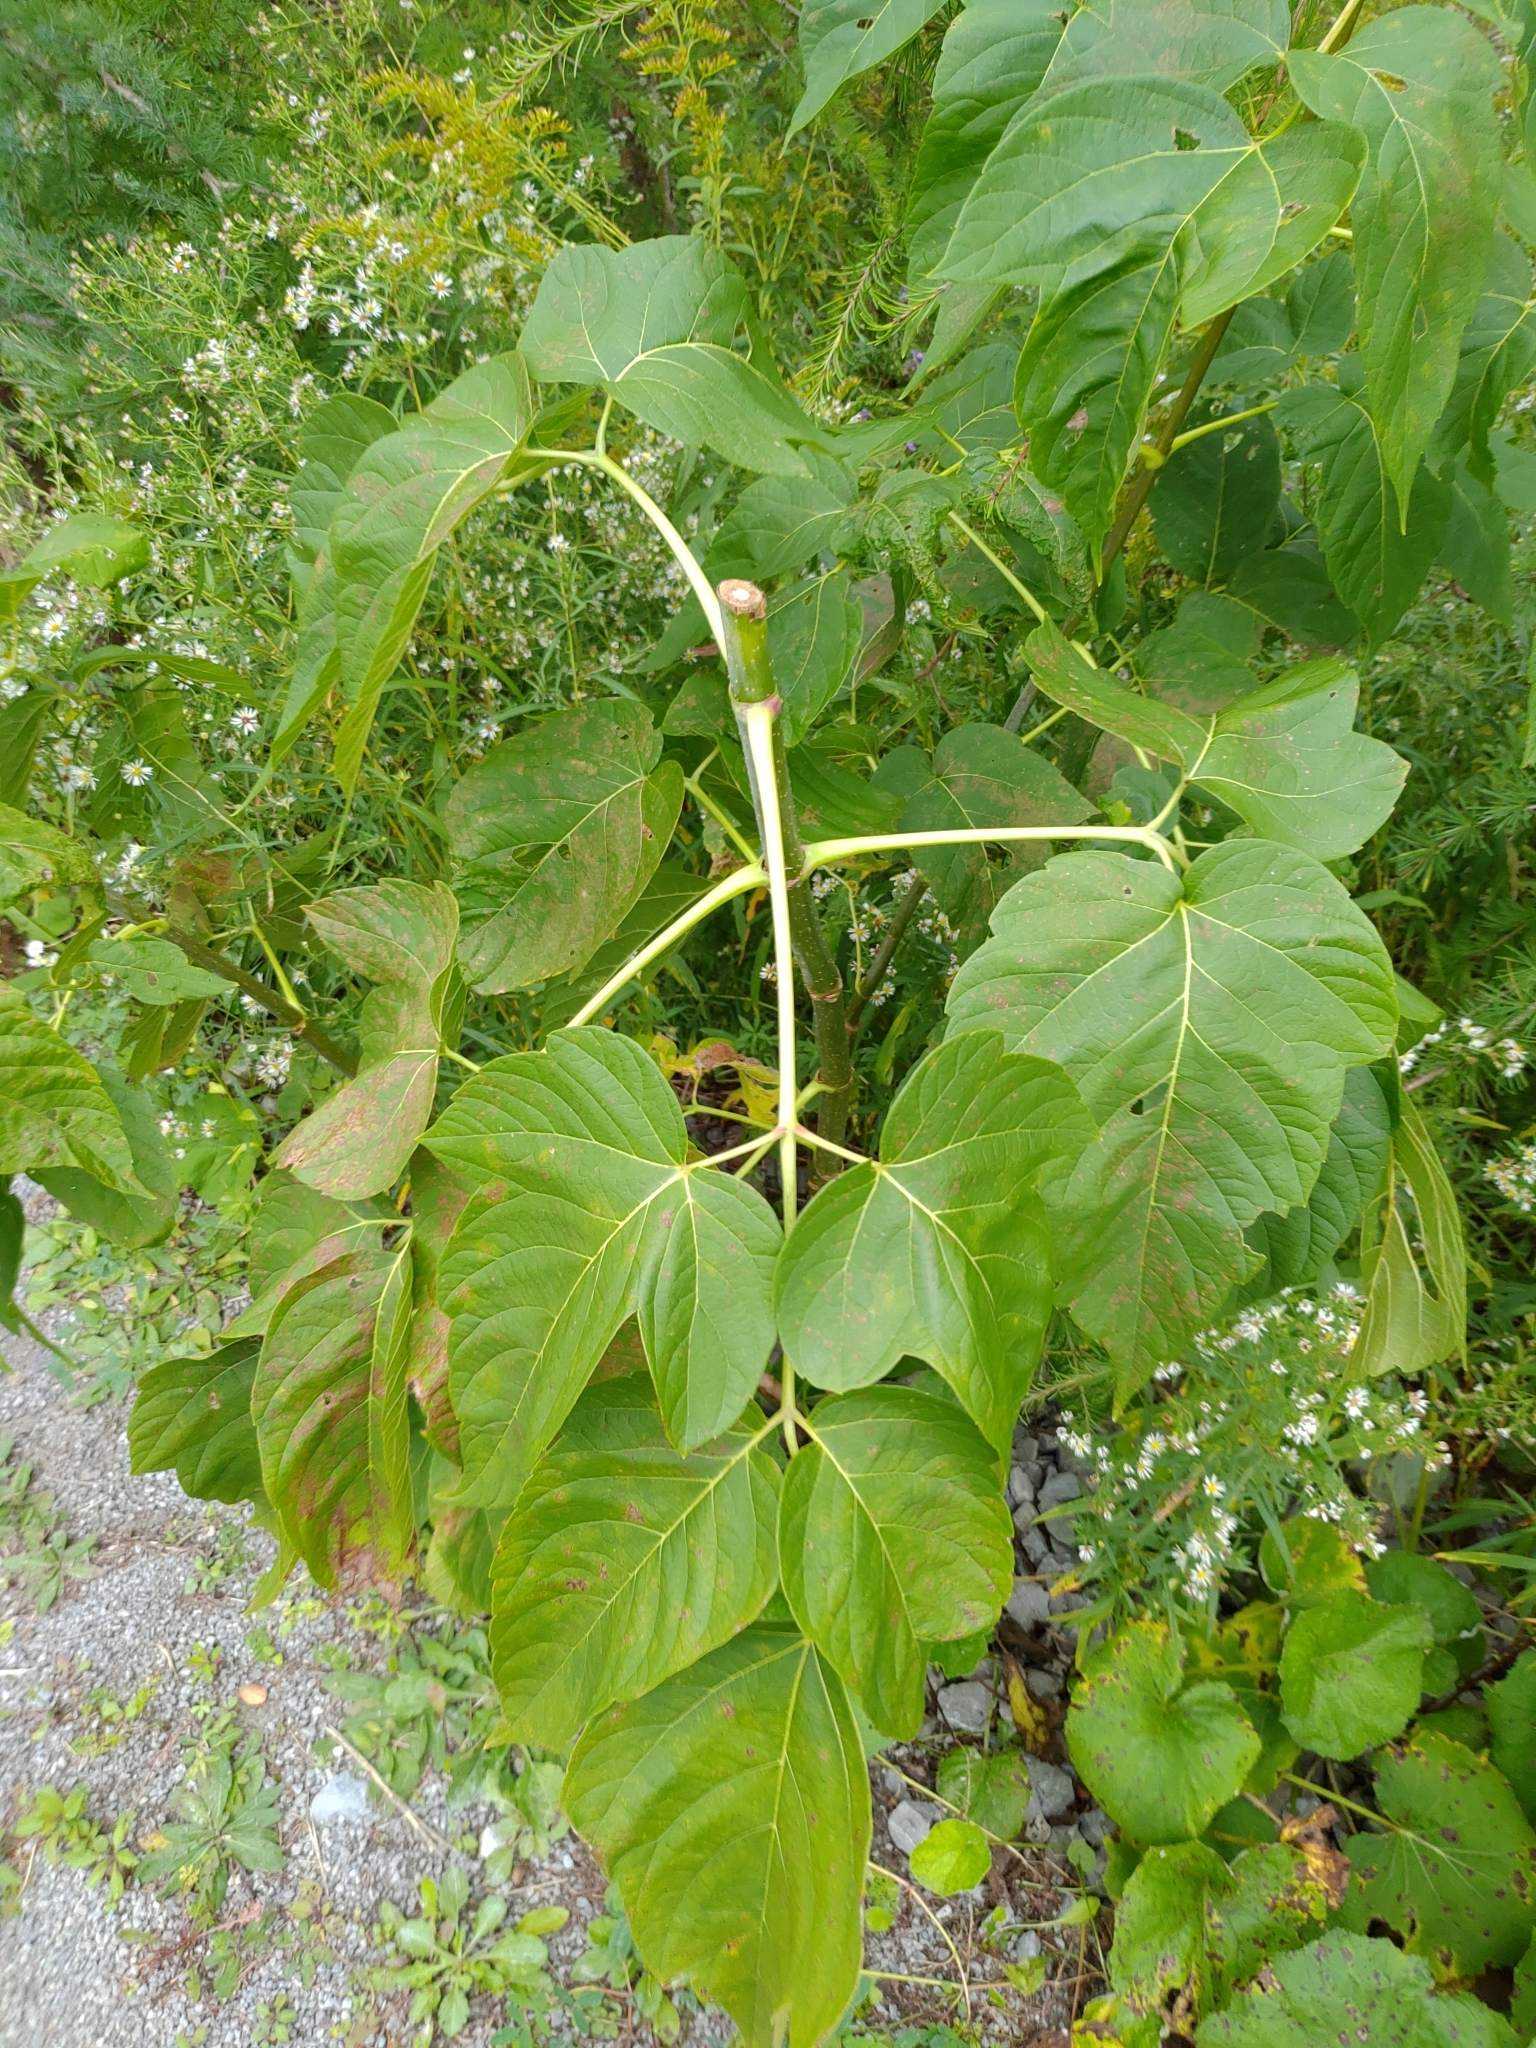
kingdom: Plantae
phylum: Tracheophyta
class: Magnoliopsida
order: Sapindales
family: Sapindaceae
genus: Acer
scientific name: Acer negundo
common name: Ashleaf maple
